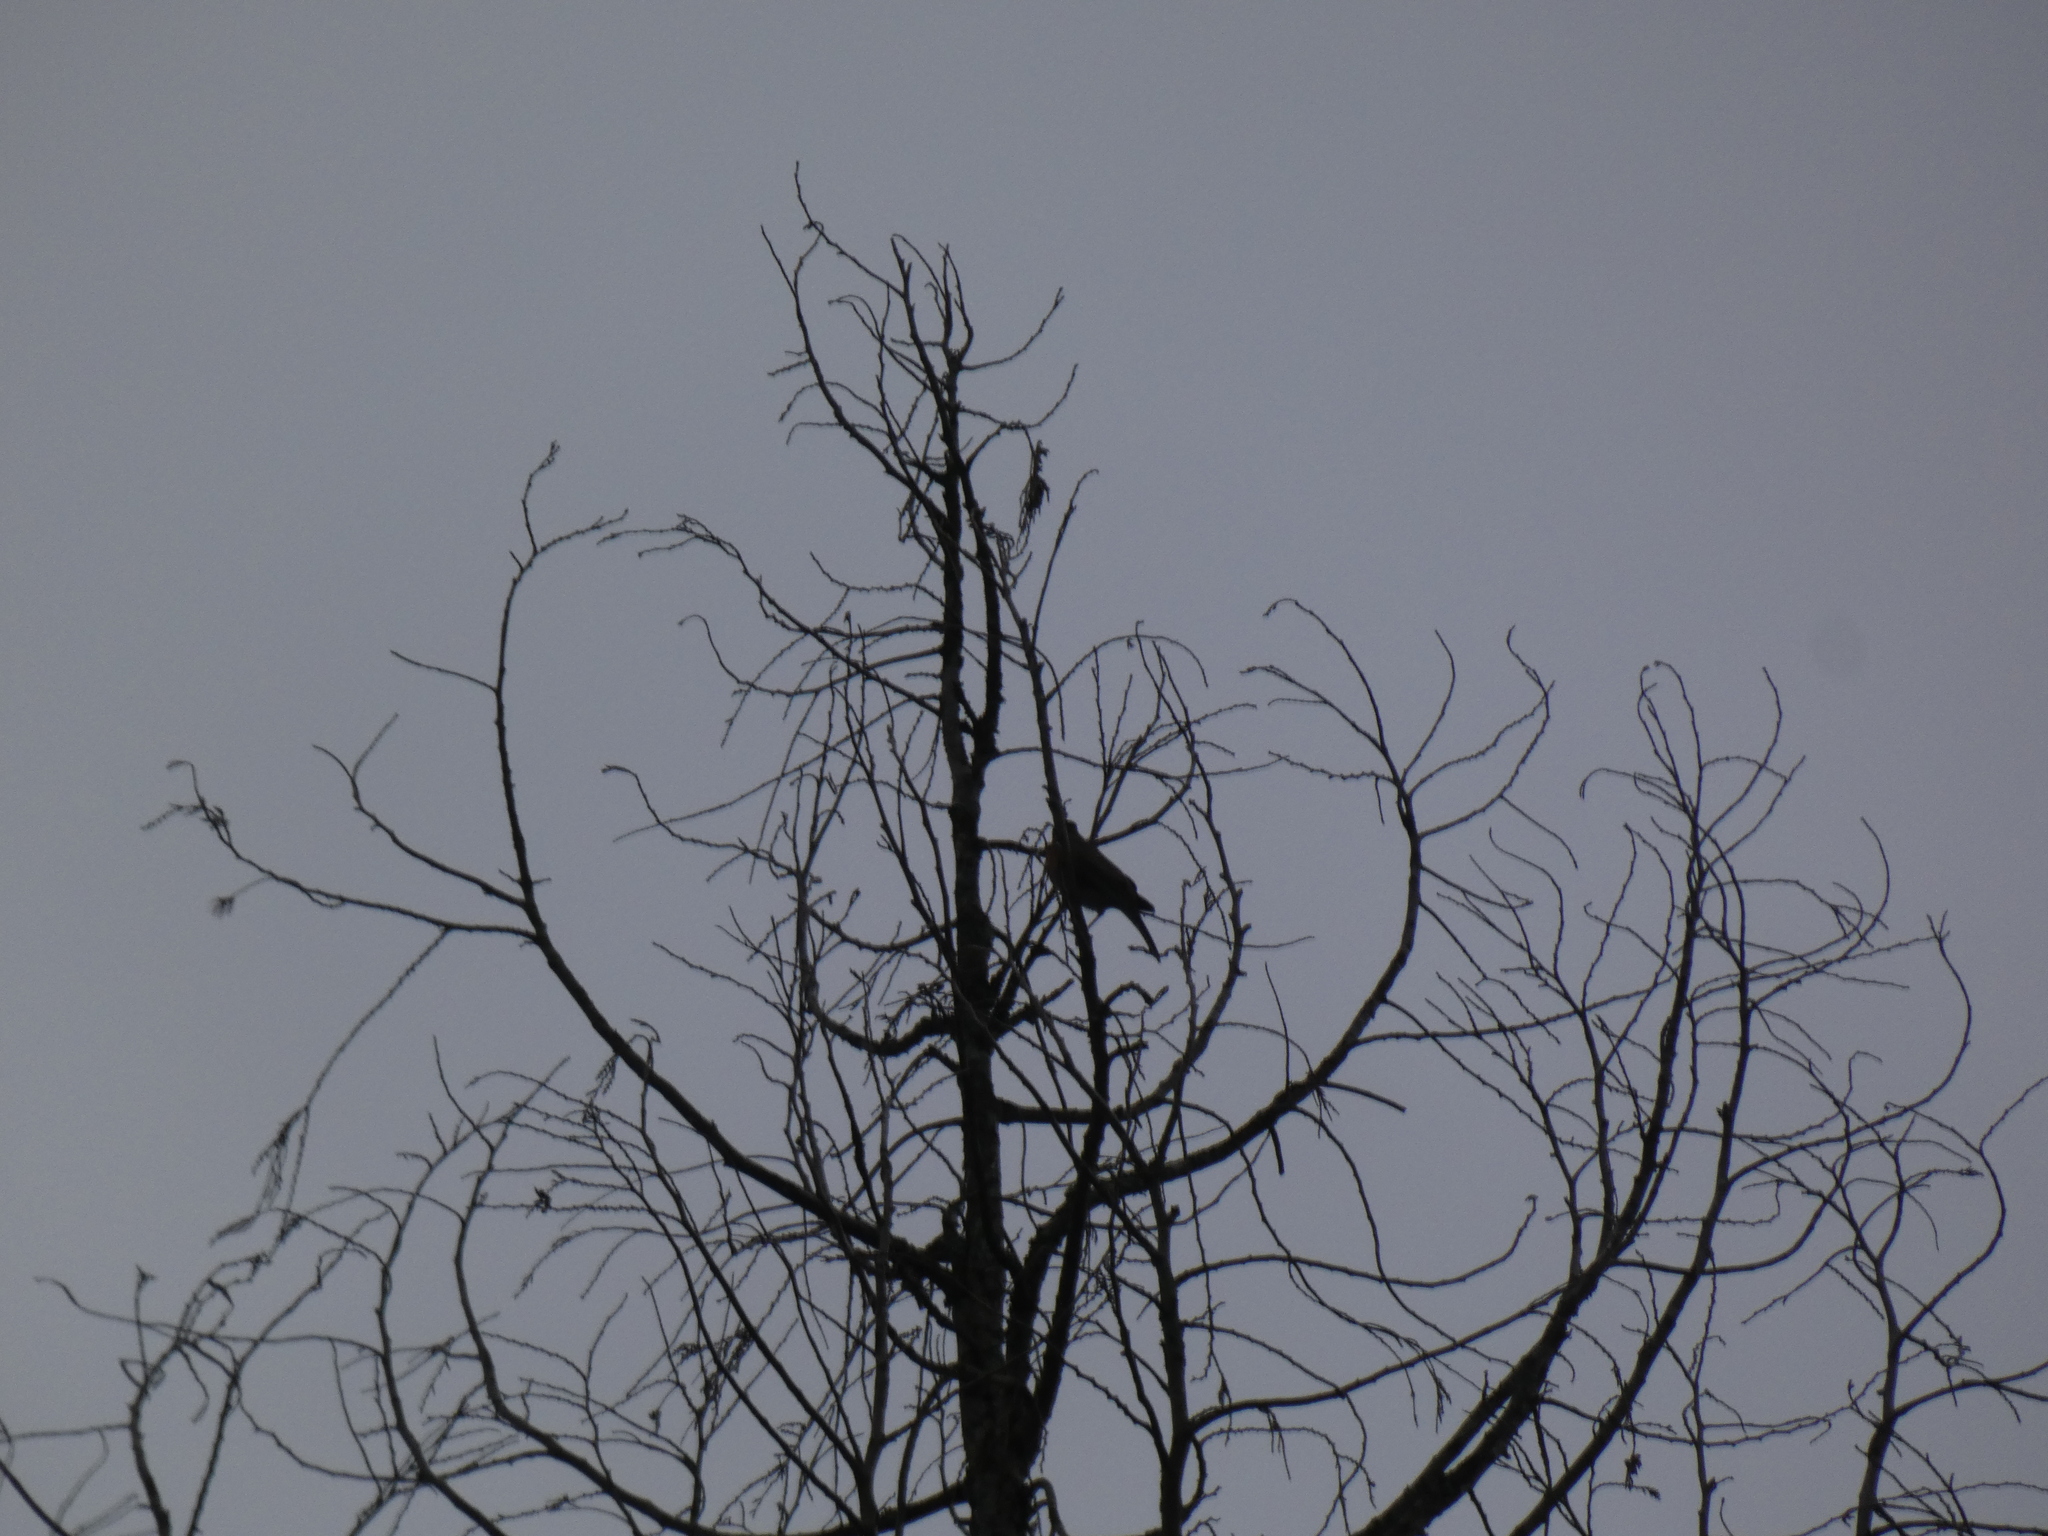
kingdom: Animalia
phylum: Chordata
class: Aves
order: Passeriformes
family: Turdidae
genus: Turdus
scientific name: Turdus migratorius
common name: American robin
